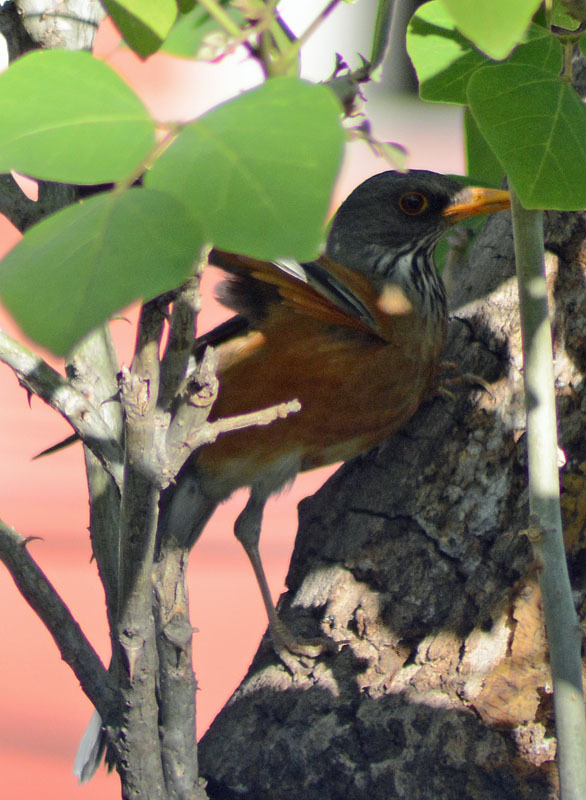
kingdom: Animalia
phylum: Chordata
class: Aves
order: Passeriformes
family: Turdidae
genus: Turdus
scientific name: Turdus rufopalliatus
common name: Rufous-backed robin
